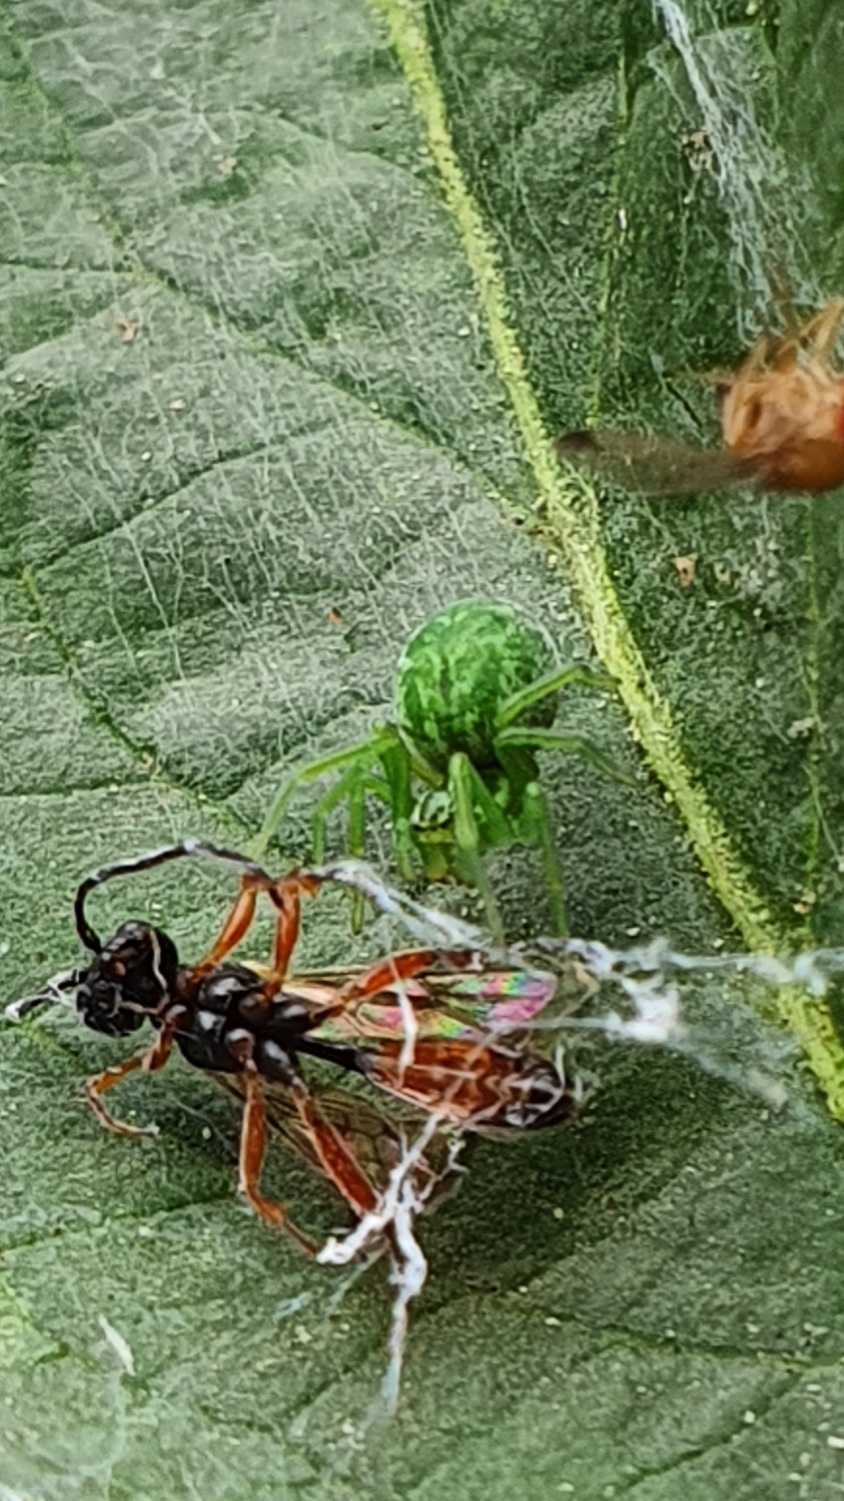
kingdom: Animalia
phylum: Arthropoda
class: Arachnida
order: Araneae
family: Dictynidae
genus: Nigma
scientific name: Nigma walckenaeri
